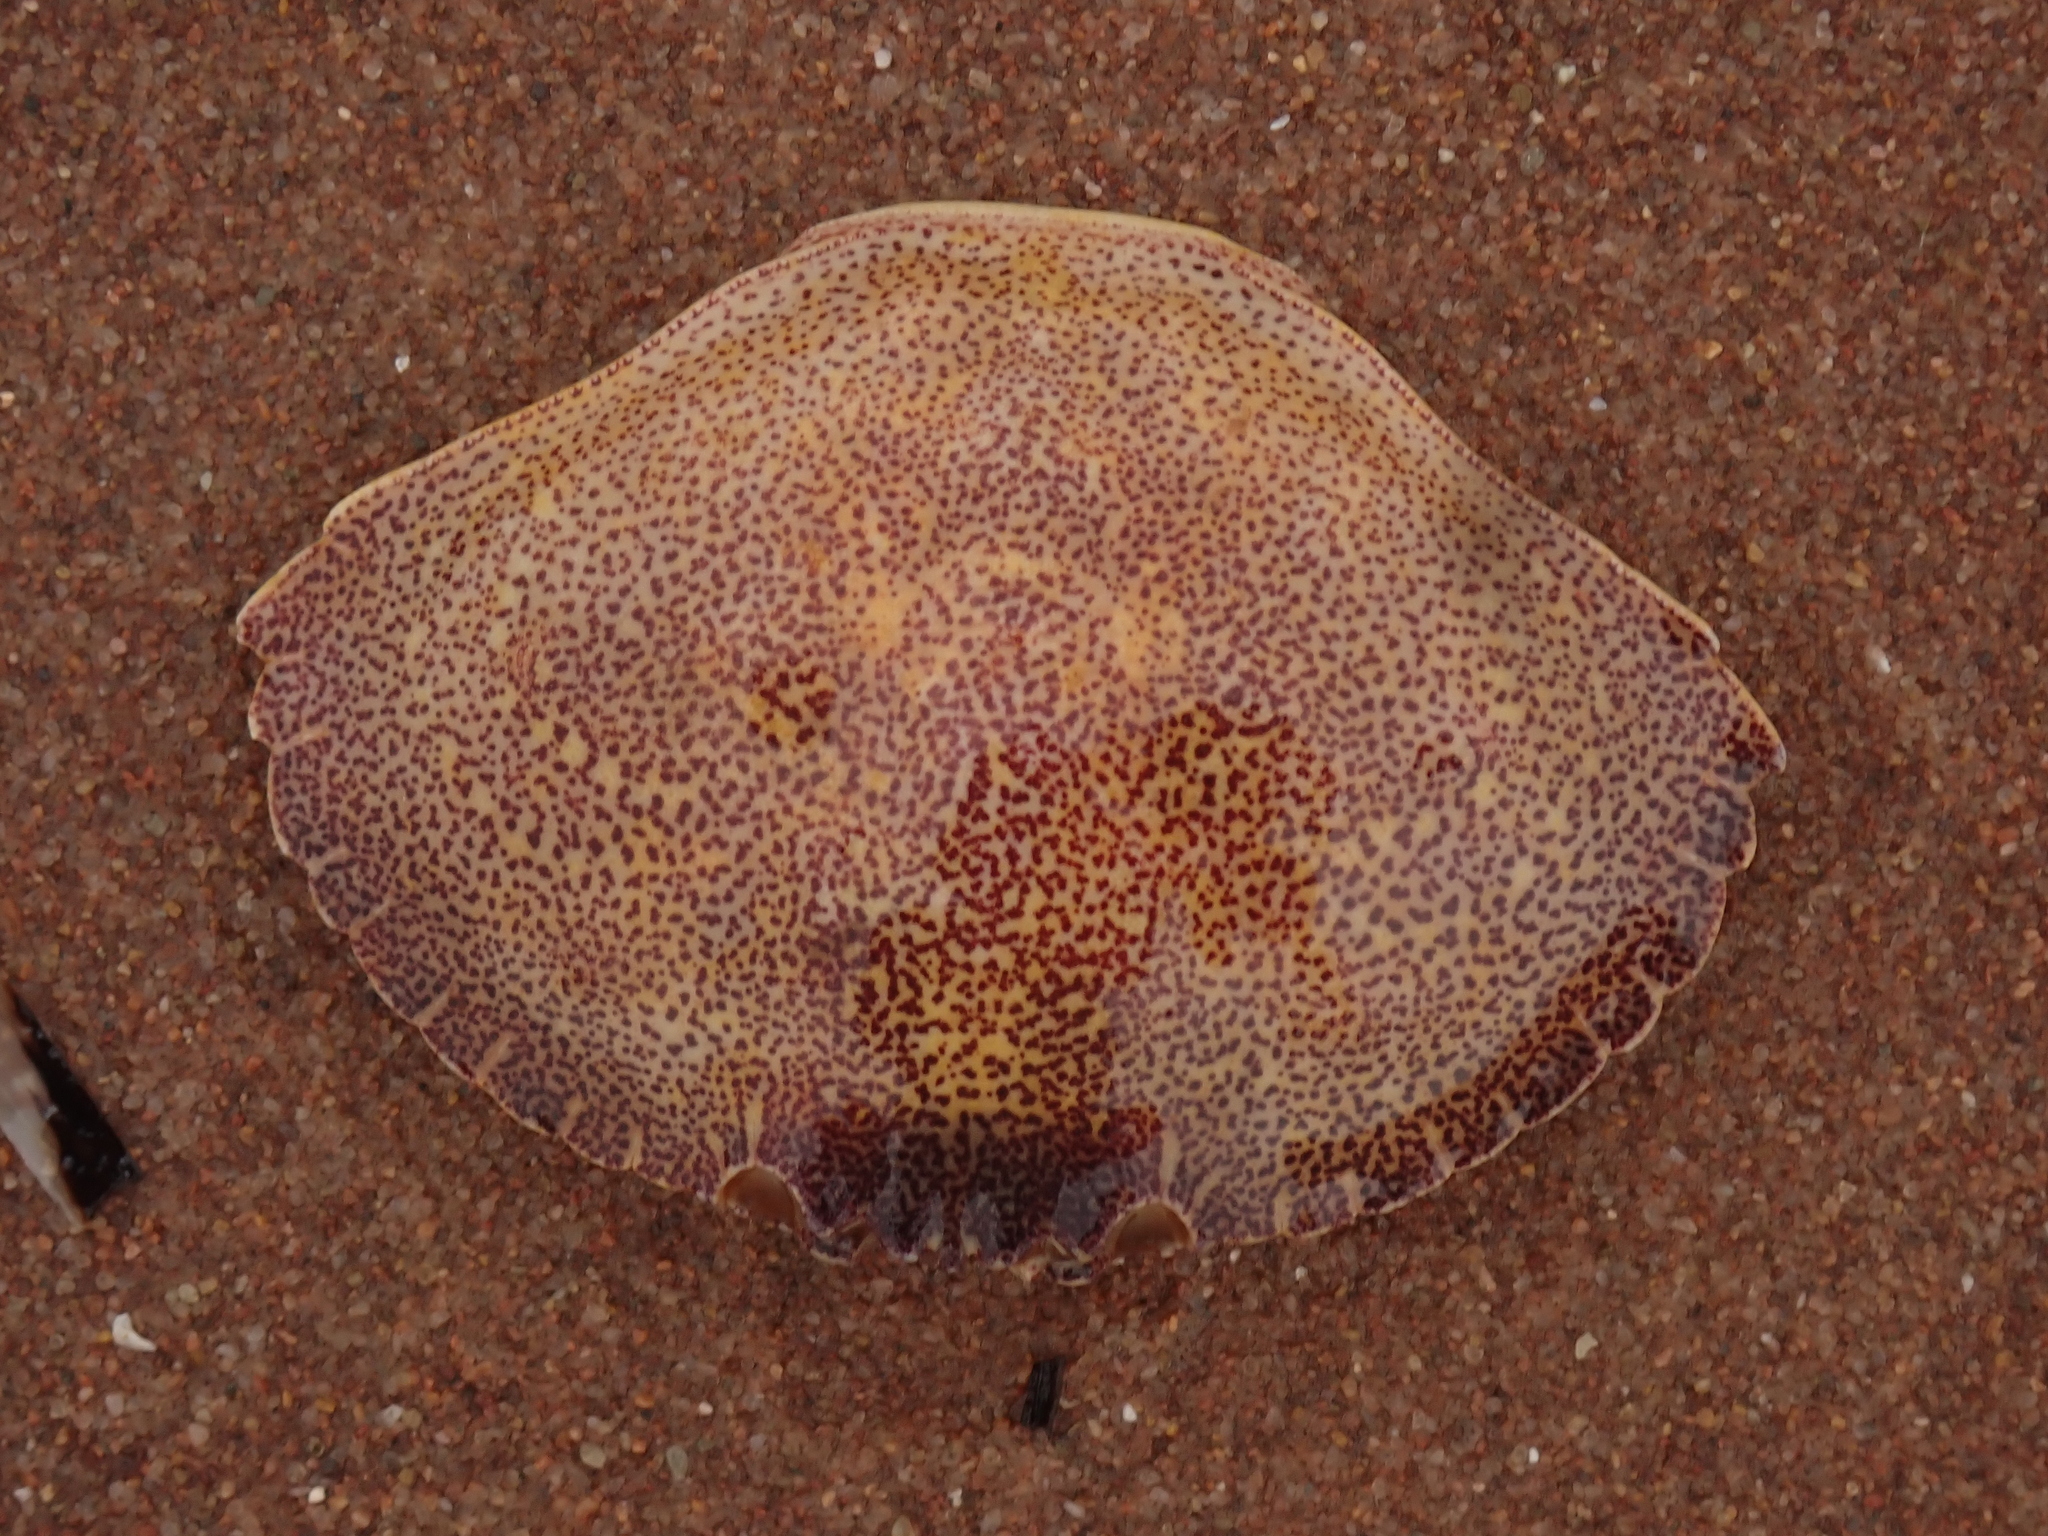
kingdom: Animalia
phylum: Arthropoda
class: Malacostraca
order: Decapoda
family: Cancridae
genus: Cancer
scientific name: Cancer irroratus
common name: Atlantic rock crab
